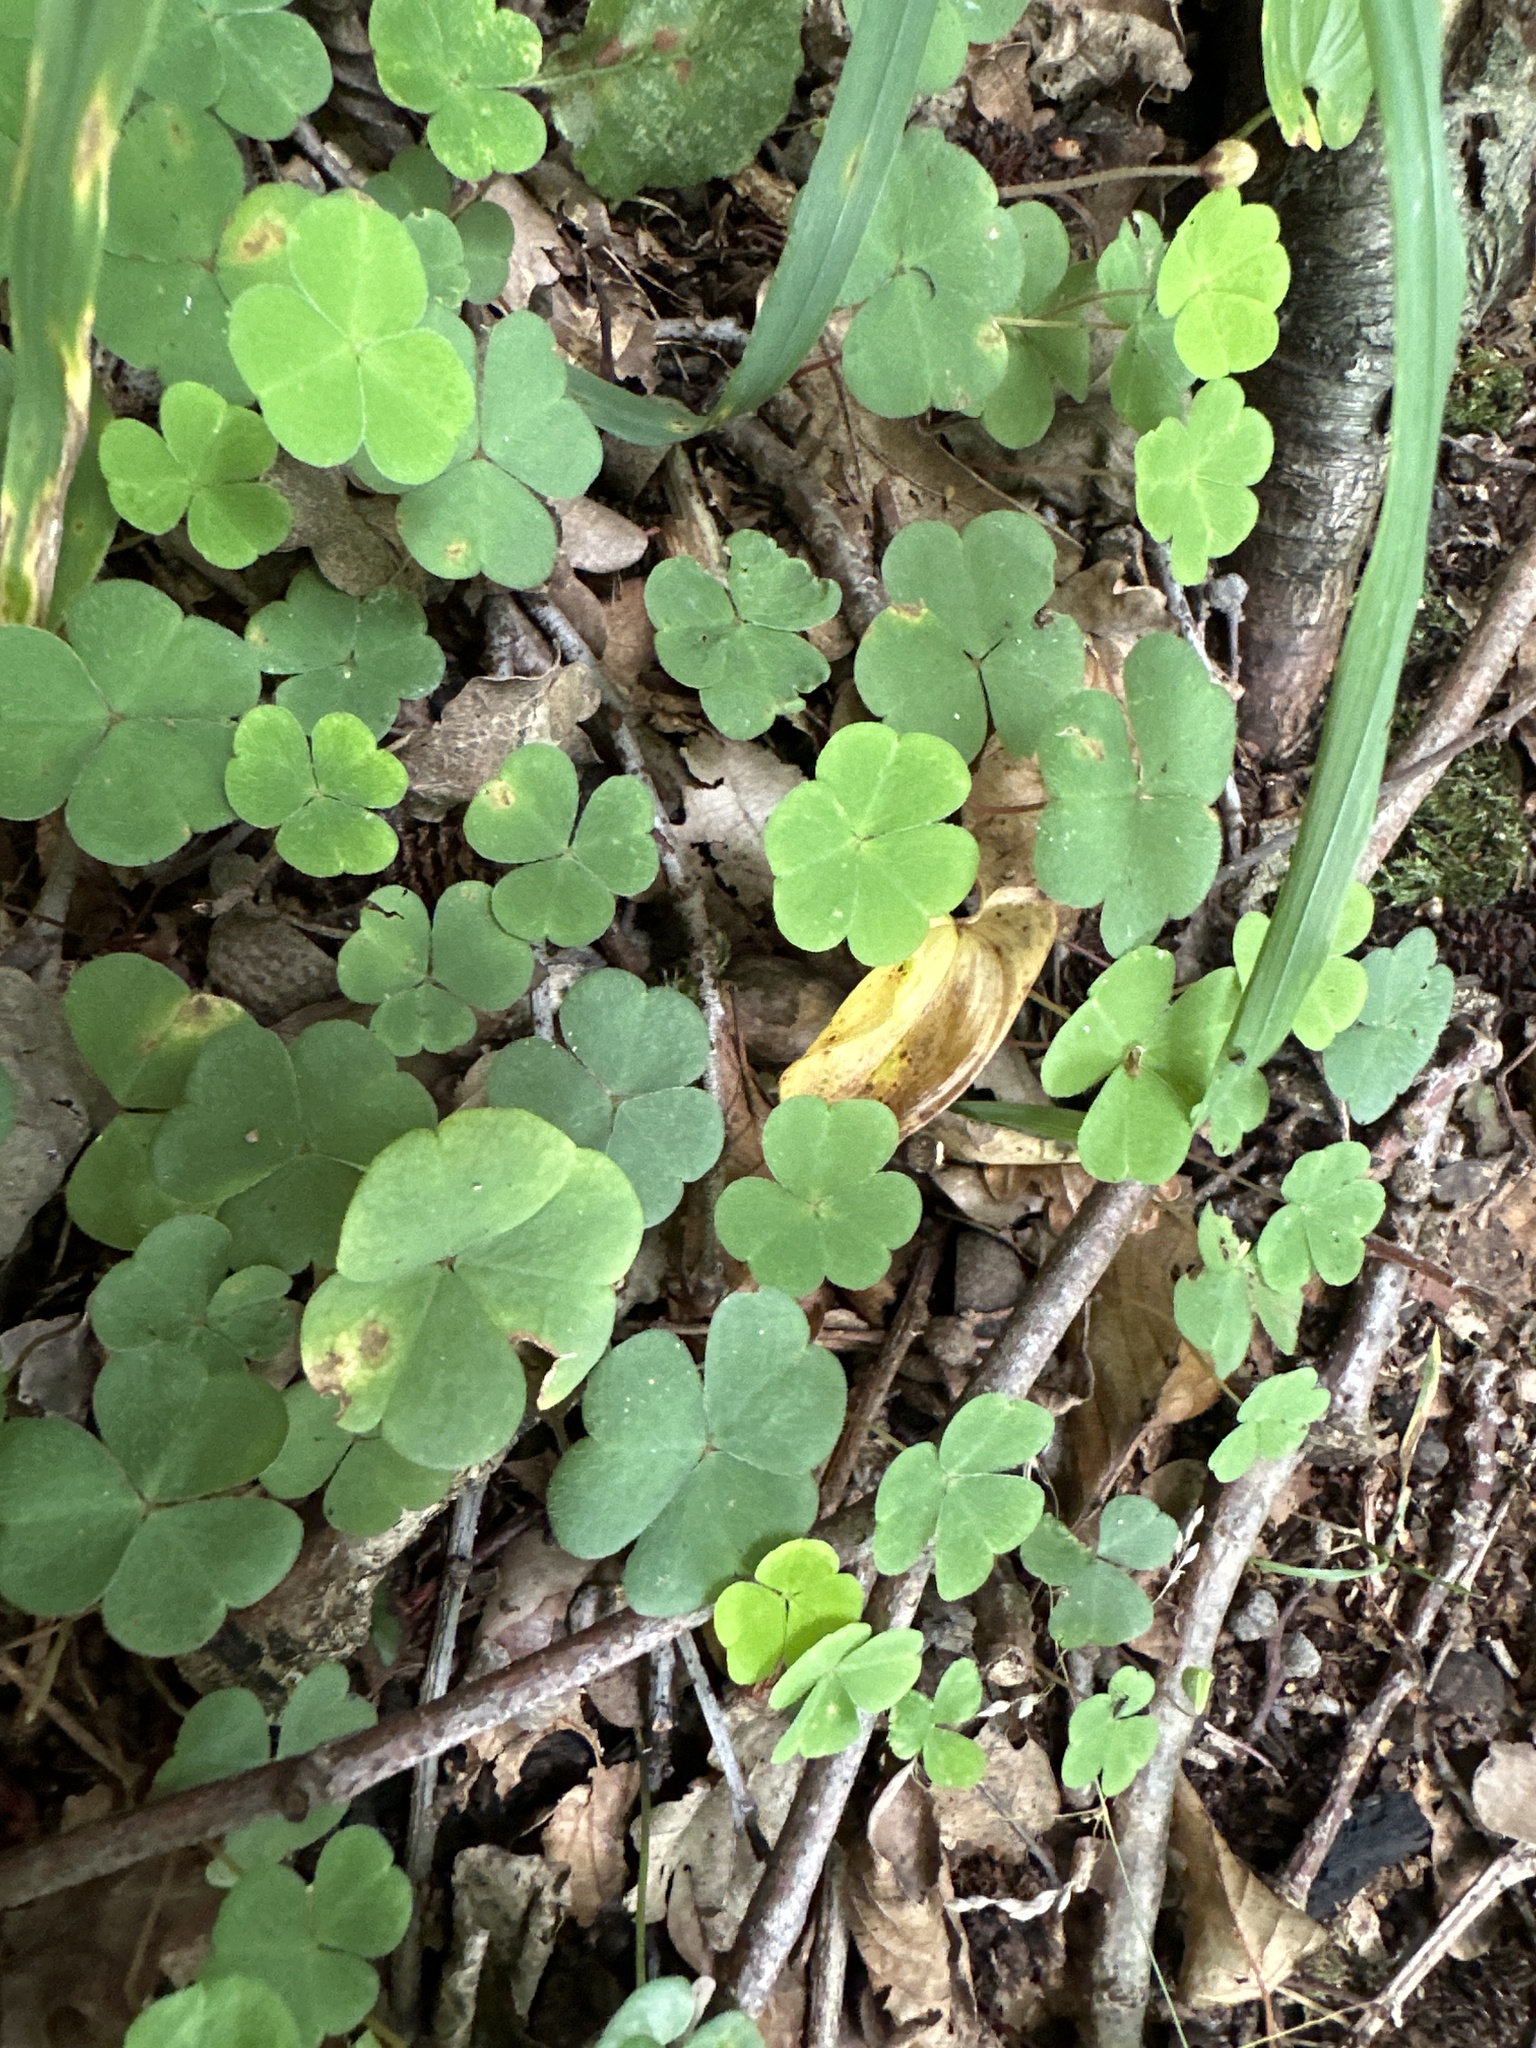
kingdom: Plantae
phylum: Tracheophyta
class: Magnoliopsida
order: Oxalidales
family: Oxalidaceae
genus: Oxalis
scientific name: Oxalis acetosella
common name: Wood-sorrel
